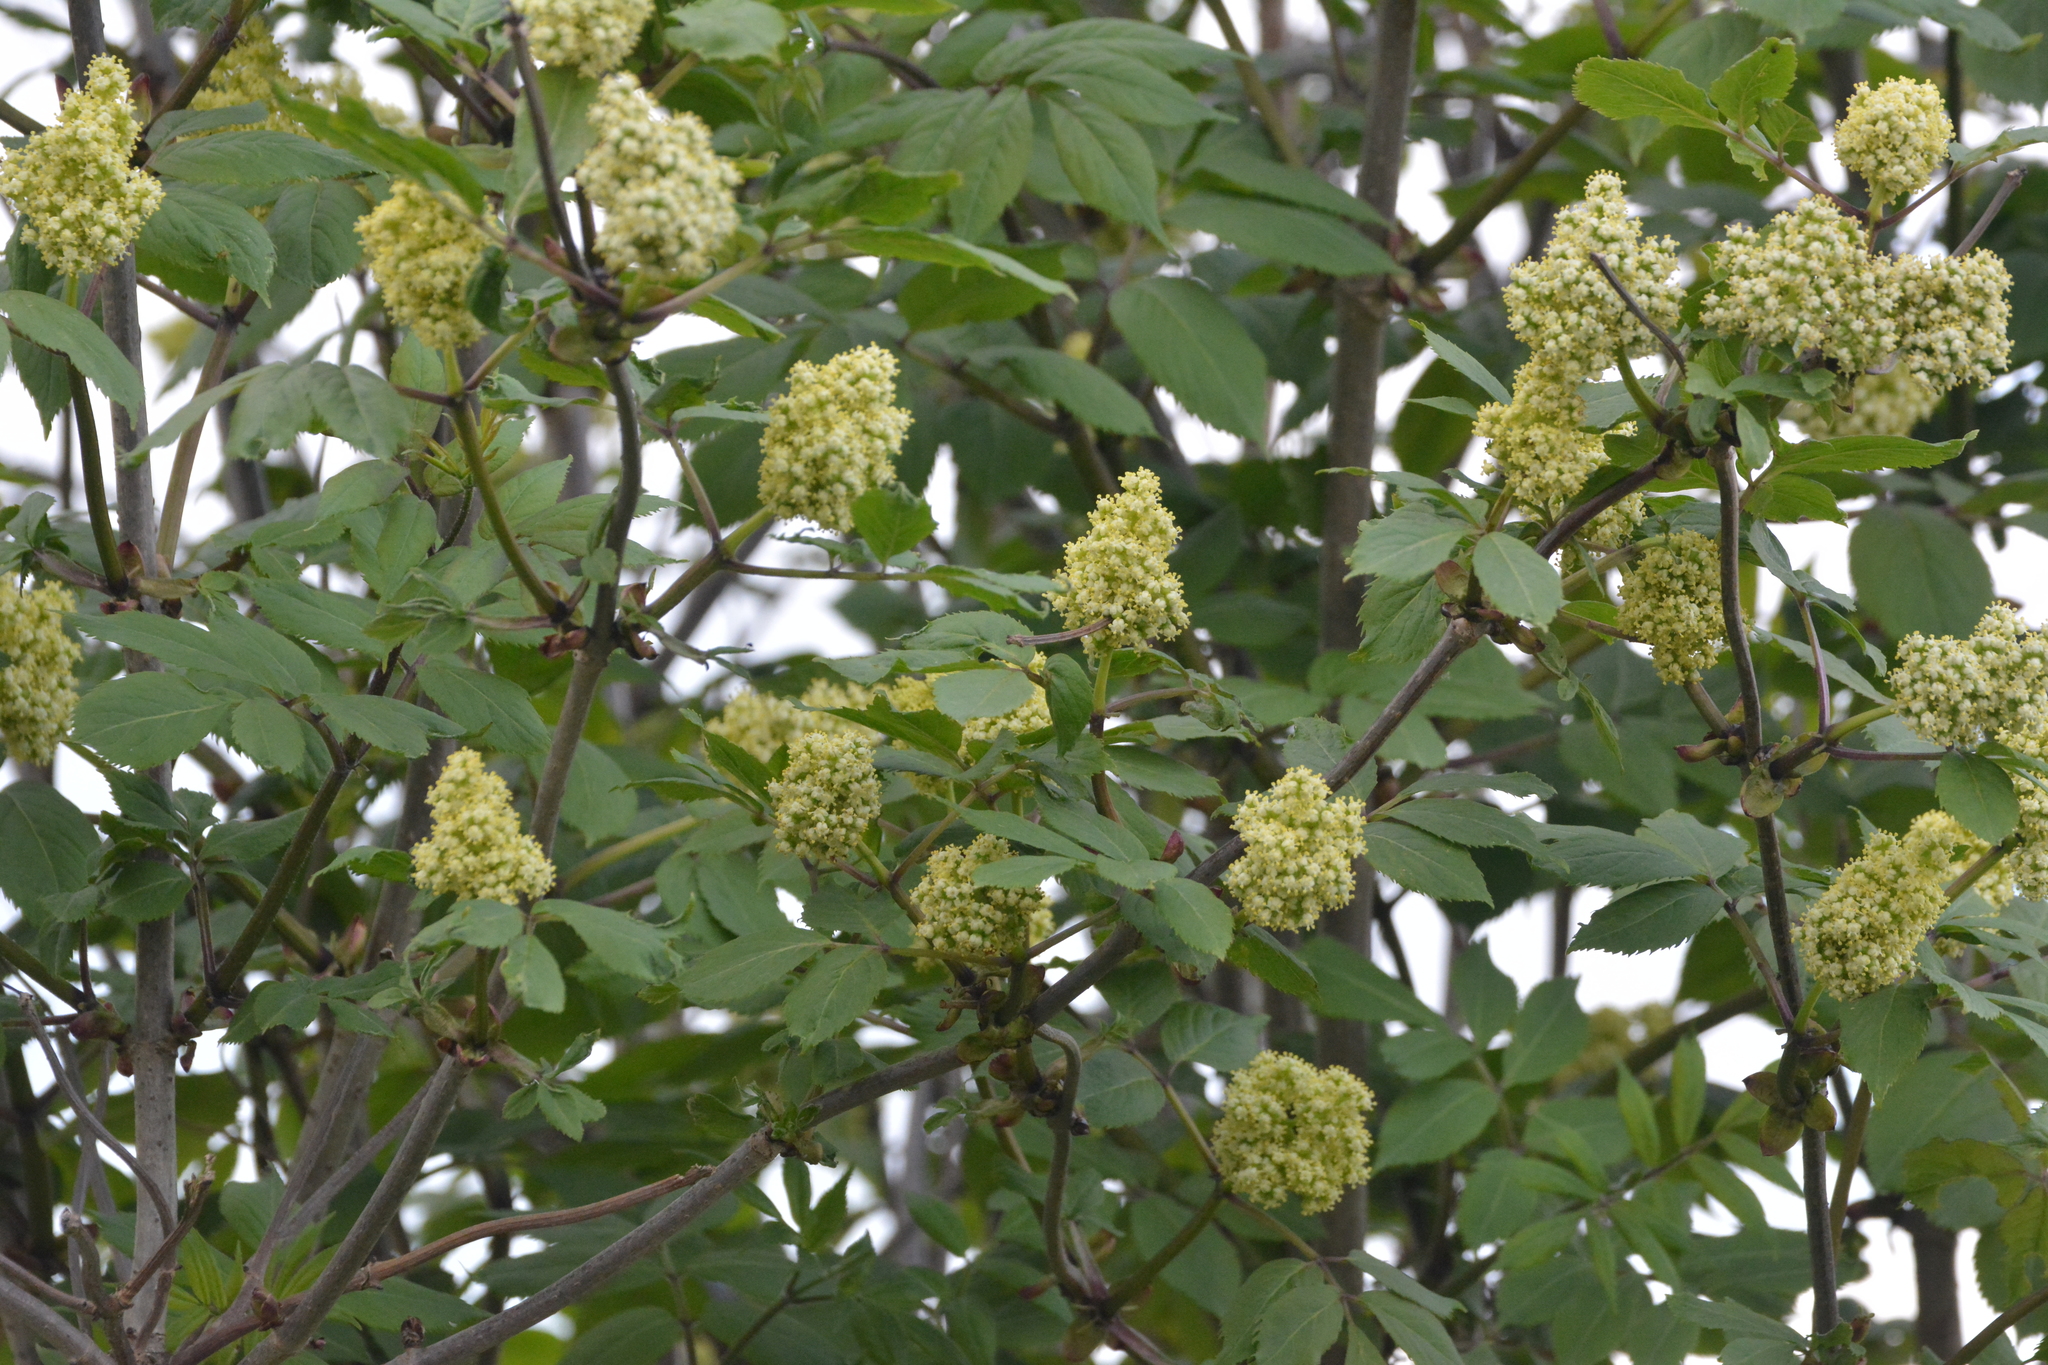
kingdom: Plantae
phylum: Tracheophyta
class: Magnoliopsida
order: Dipsacales
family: Viburnaceae
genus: Sambucus
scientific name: Sambucus racemosa
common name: Red-berried elder
